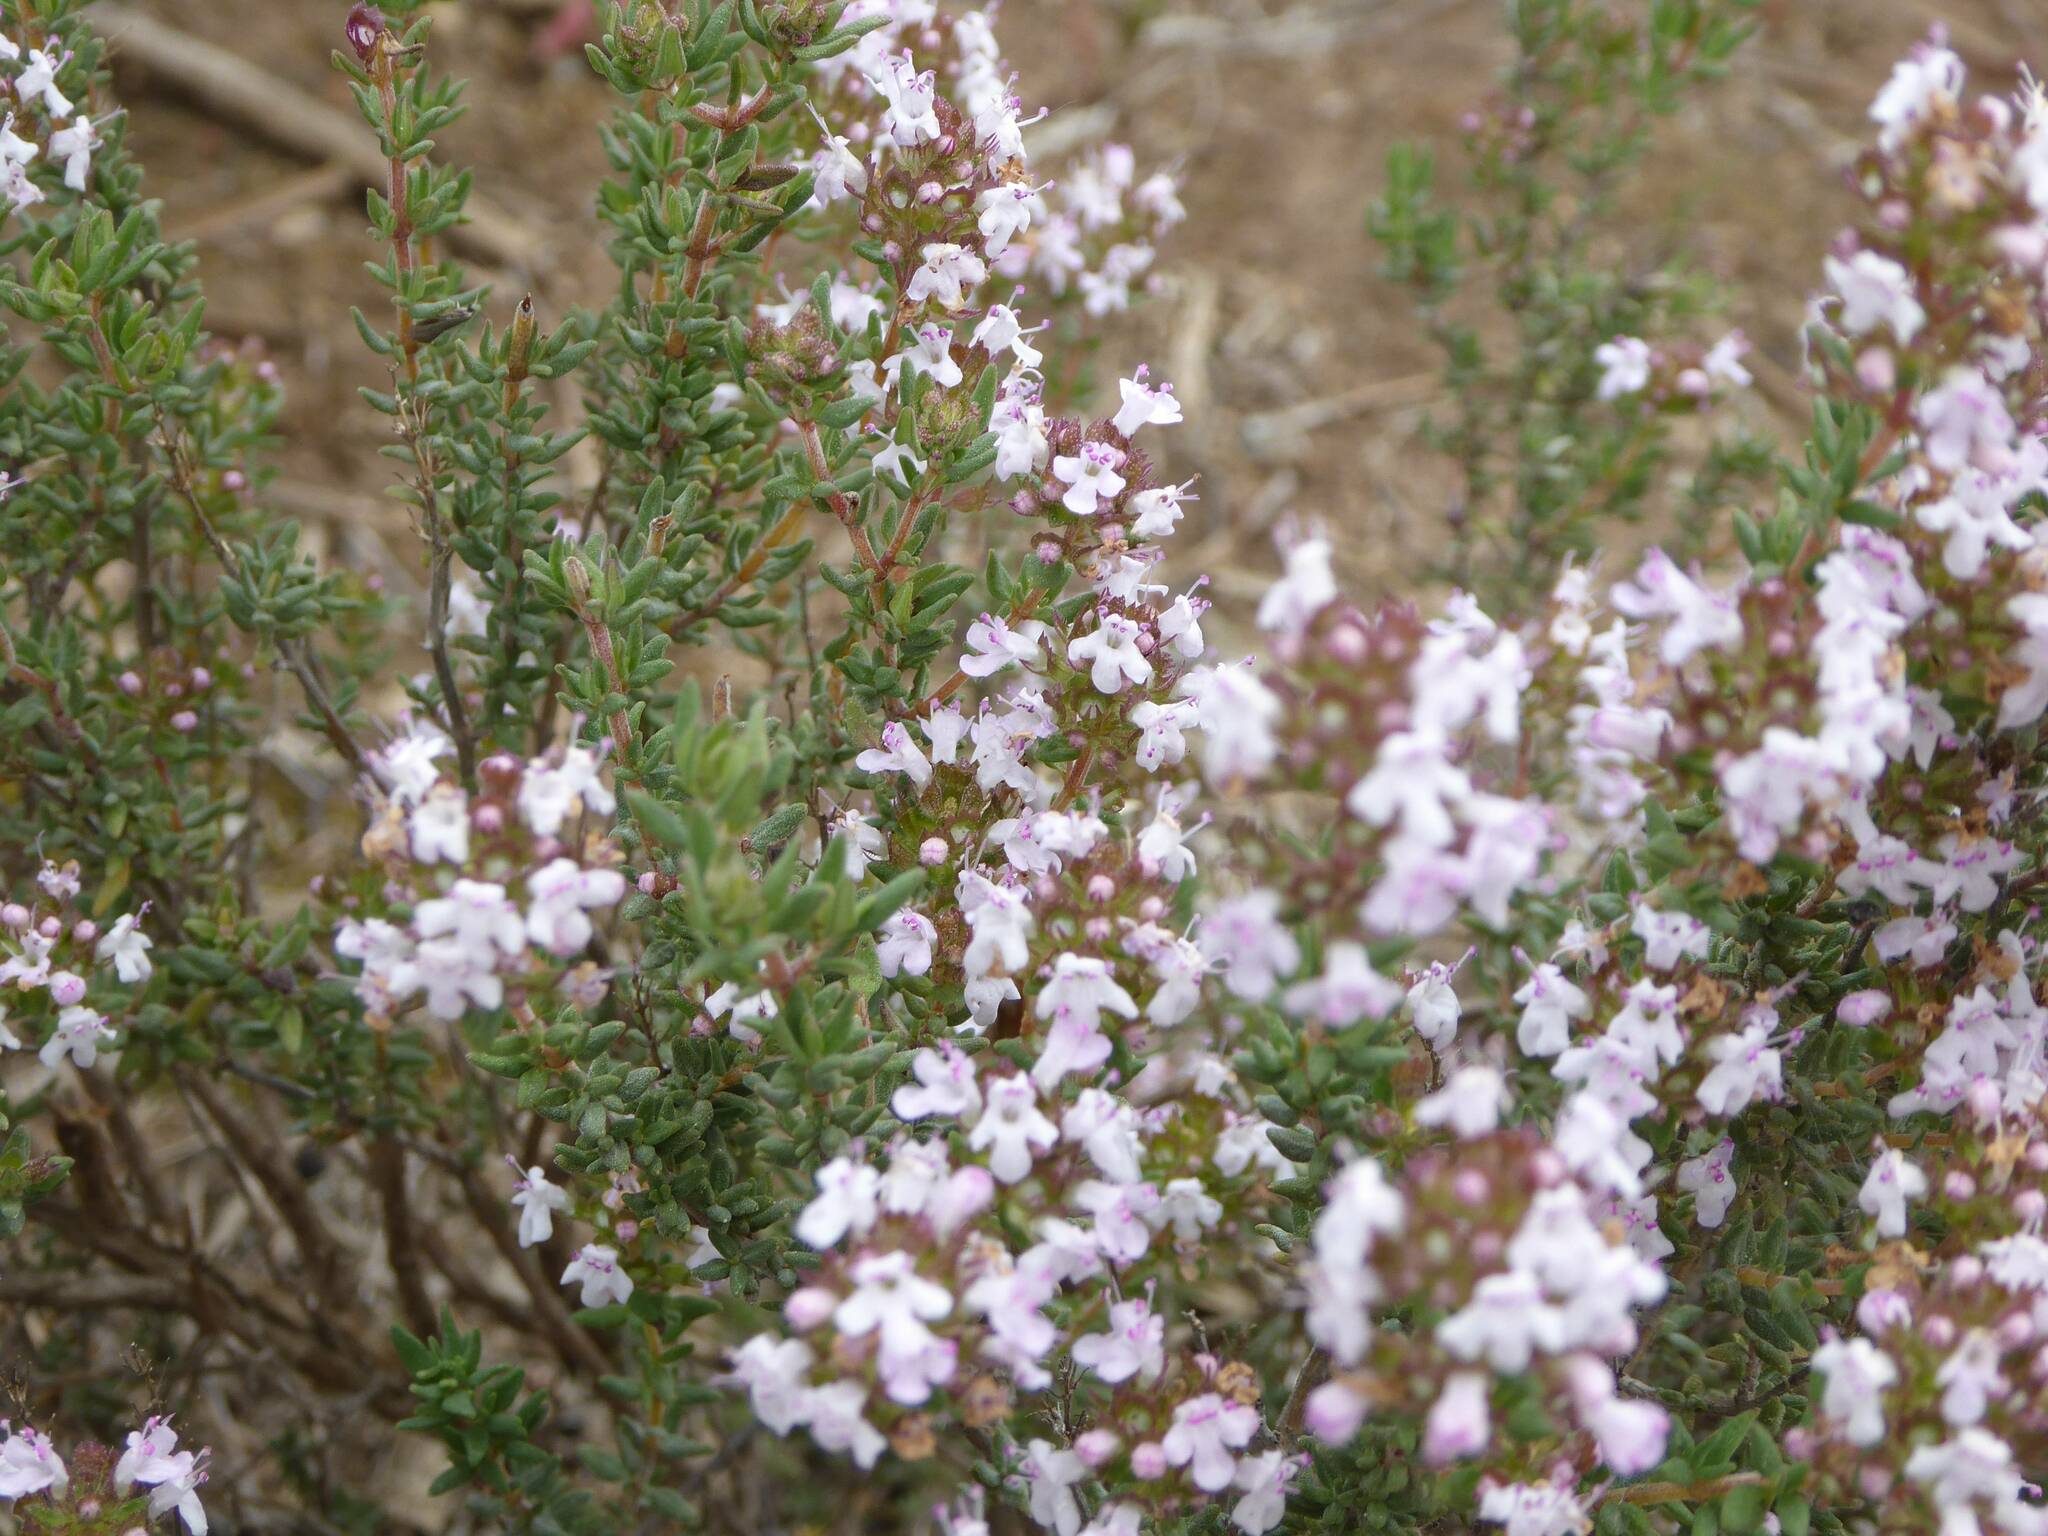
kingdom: Plantae
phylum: Tracheophyta
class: Magnoliopsida
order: Lamiales
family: Lamiaceae
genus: Thymus
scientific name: Thymus vulgaris
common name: Garden thyme
